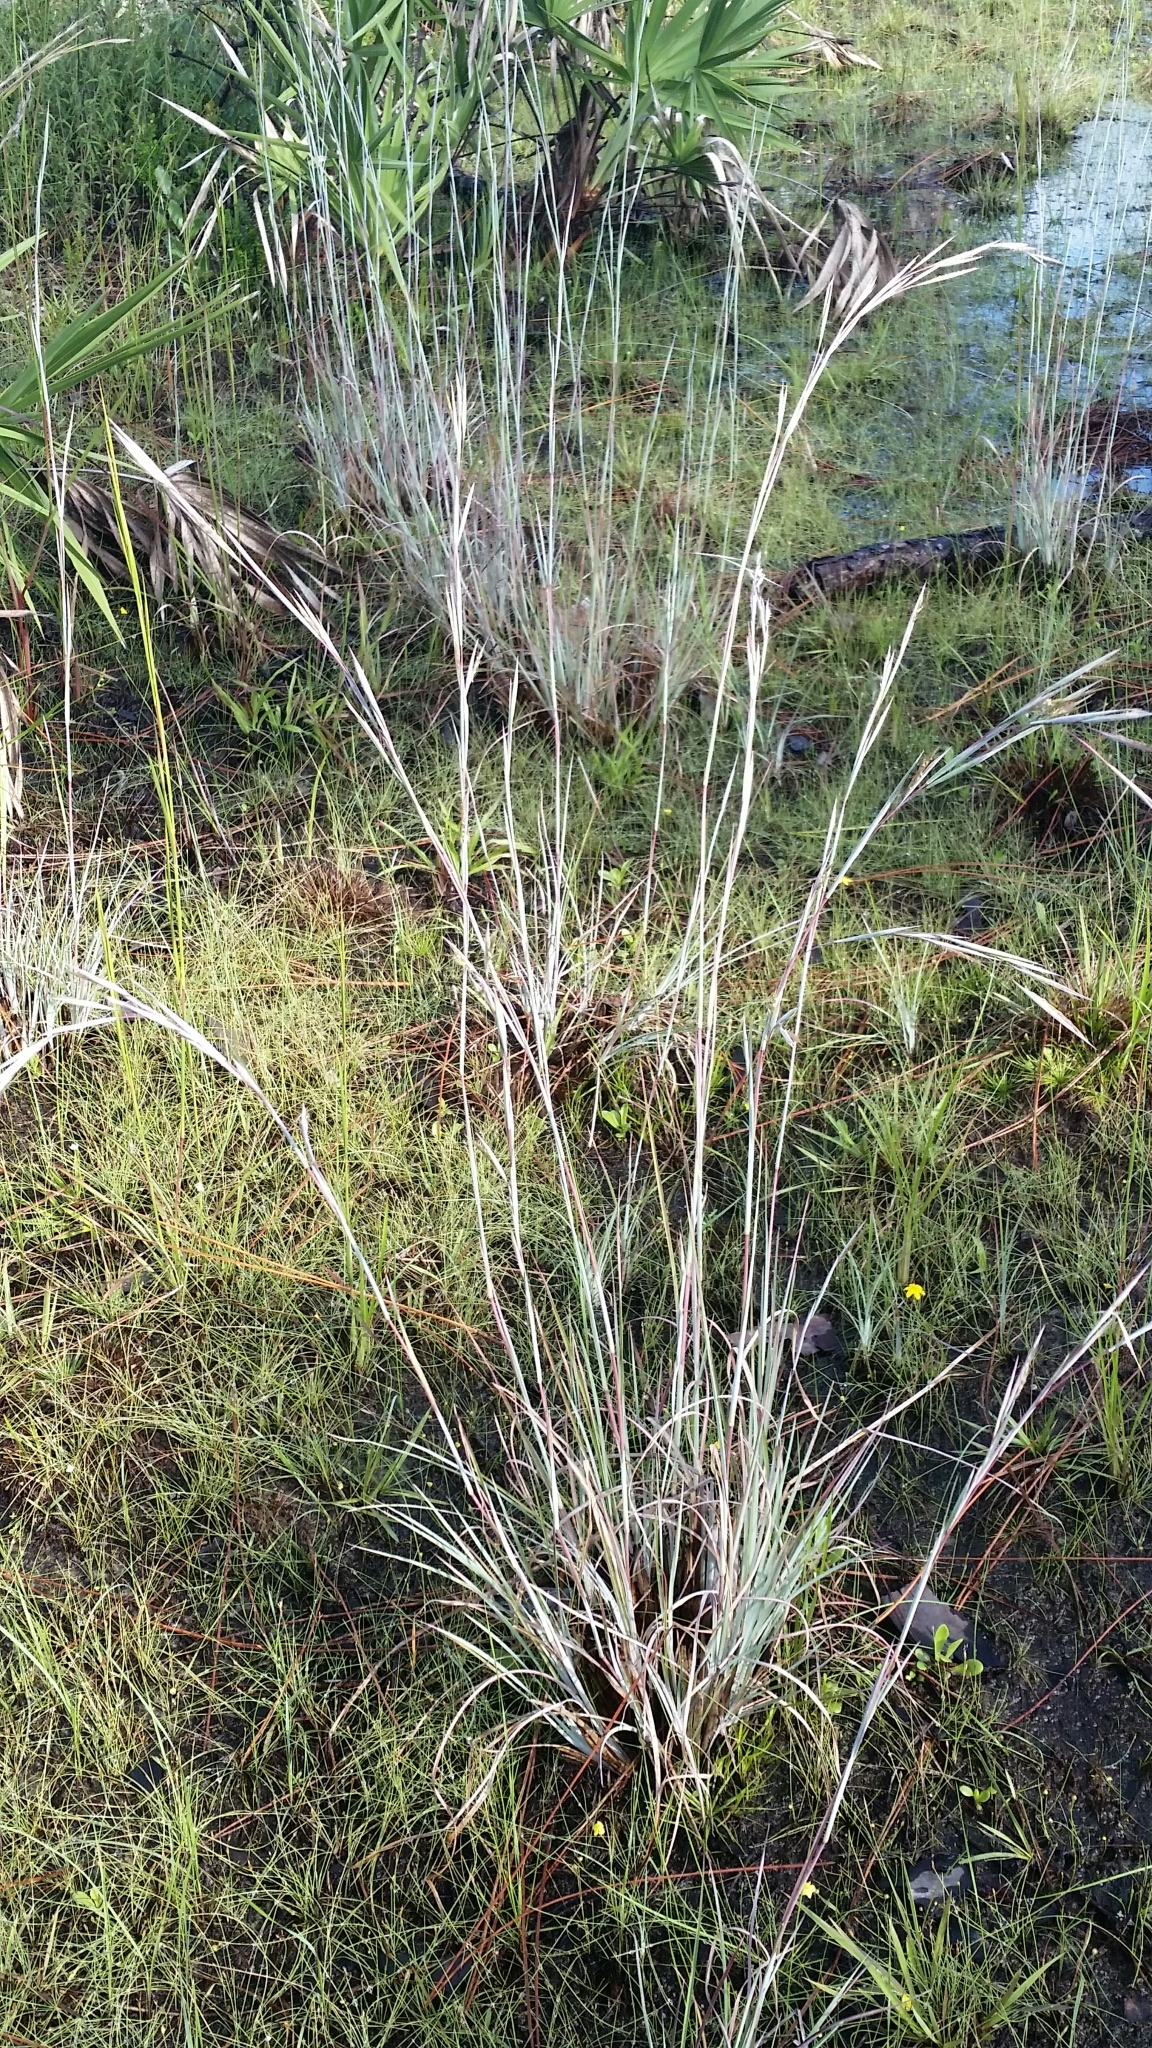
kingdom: Plantae
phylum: Tracheophyta
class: Liliopsida
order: Poales
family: Poaceae
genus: Andropogon
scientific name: Andropogon capillipes
